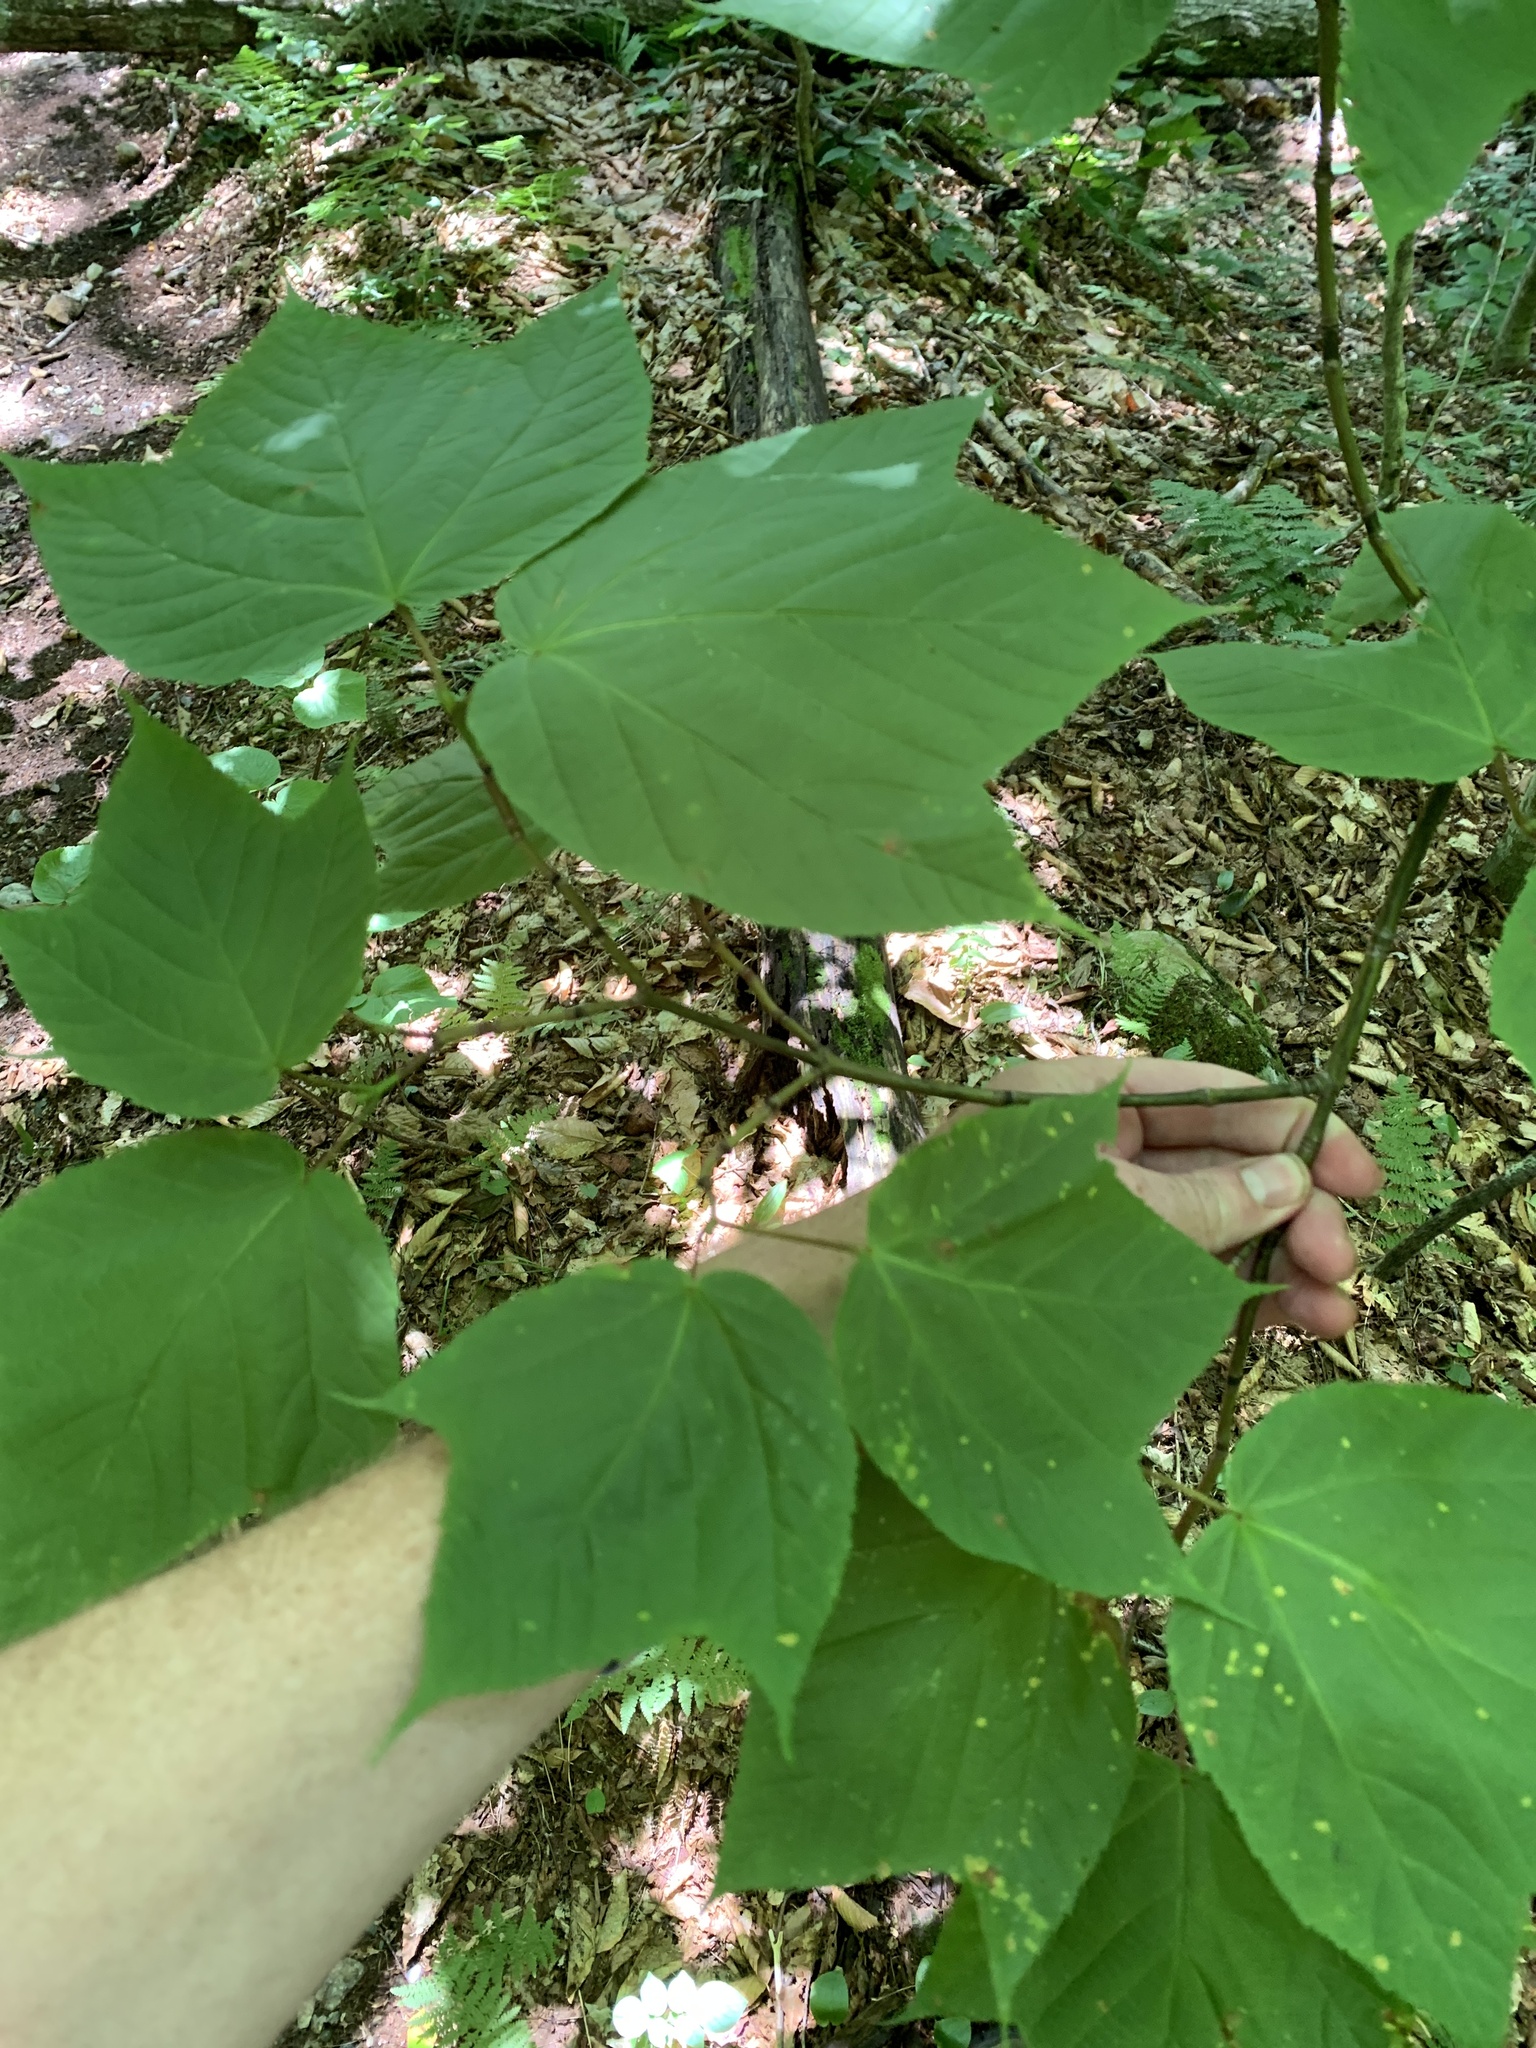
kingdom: Plantae
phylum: Tracheophyta
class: Magnoliopsida
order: Sapindales
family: Sapindaceae
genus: Acer
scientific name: Acer pensylvanicum
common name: Moosewood
